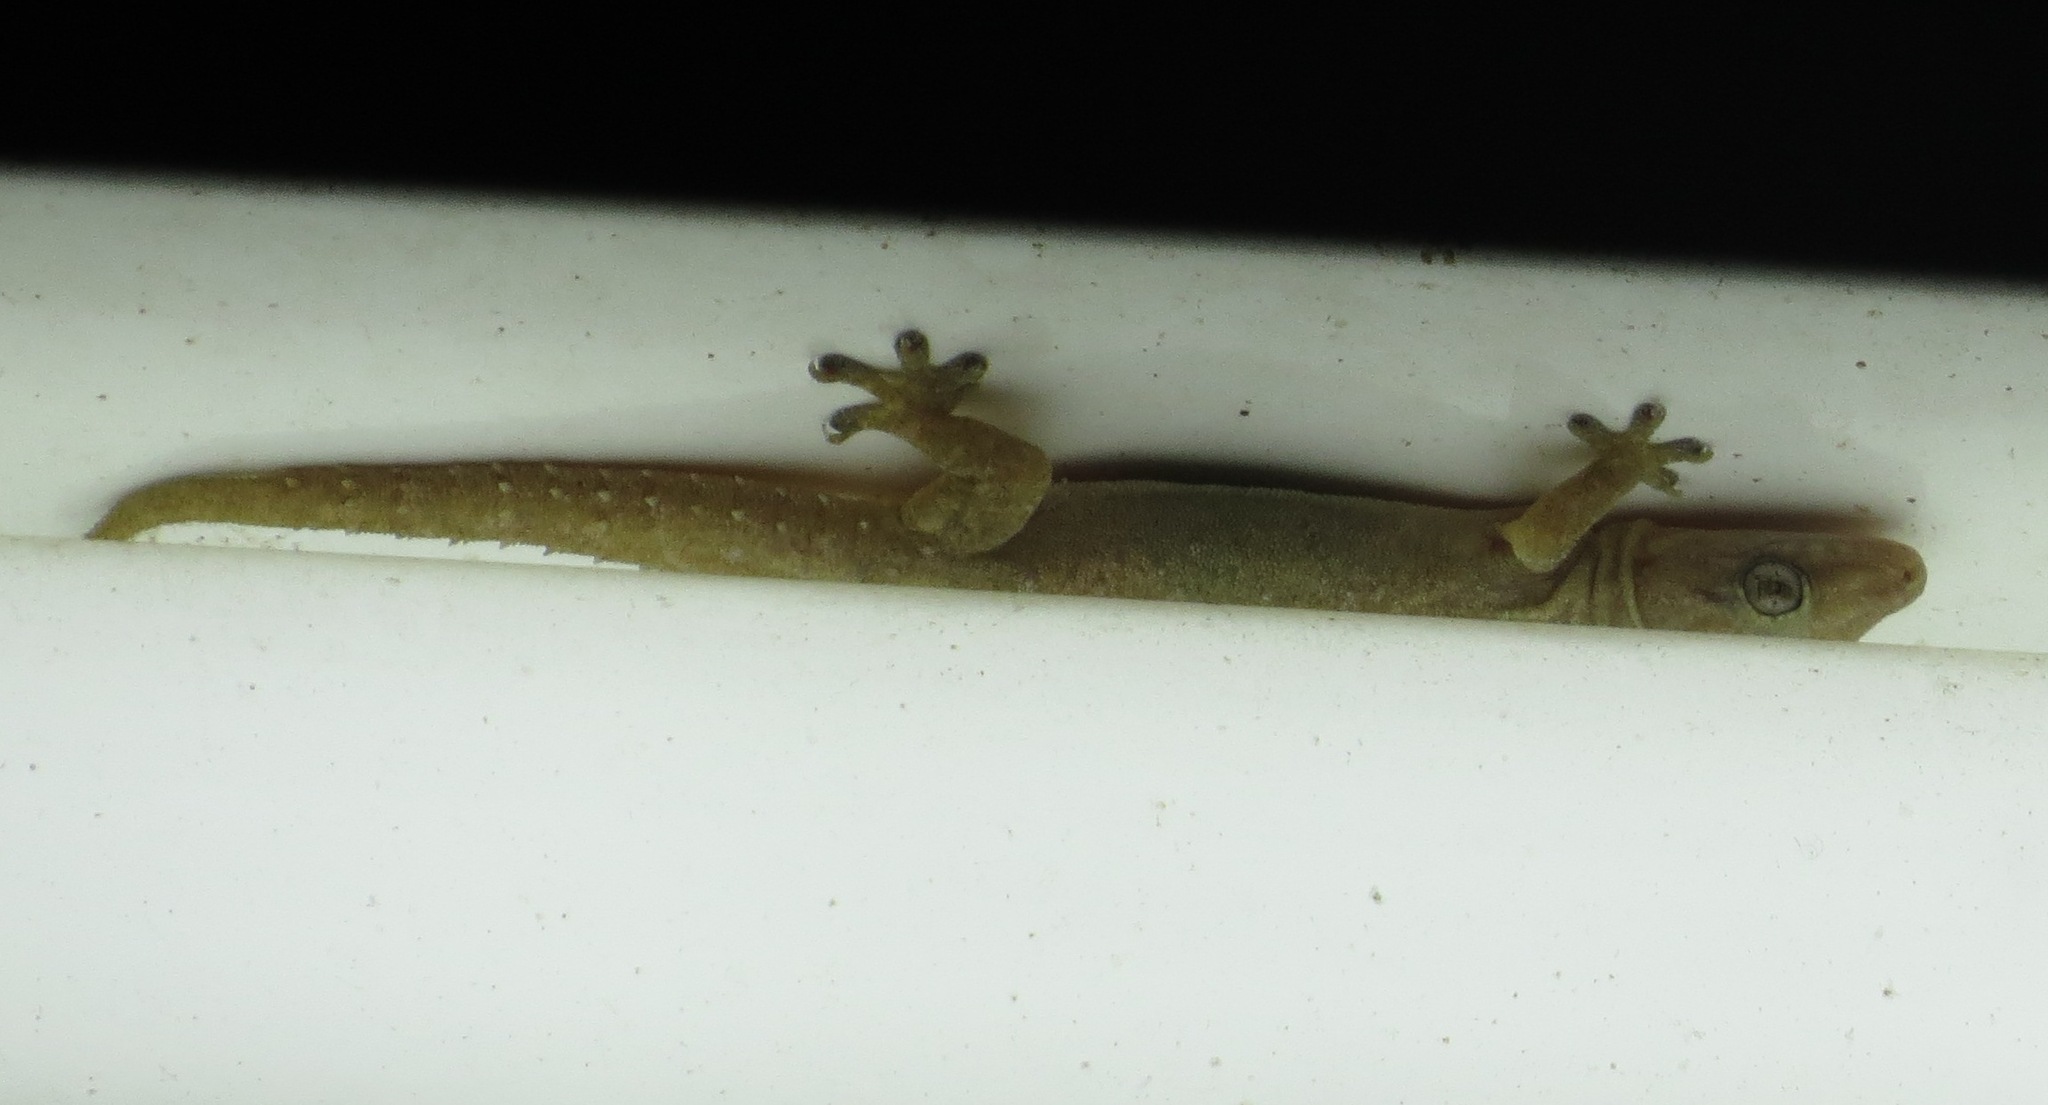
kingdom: Animalia
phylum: Chordata
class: Squamata
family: Gekkonidae
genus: Hemidactylus
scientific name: Hemidactylus frenatus
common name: Common house gecko
